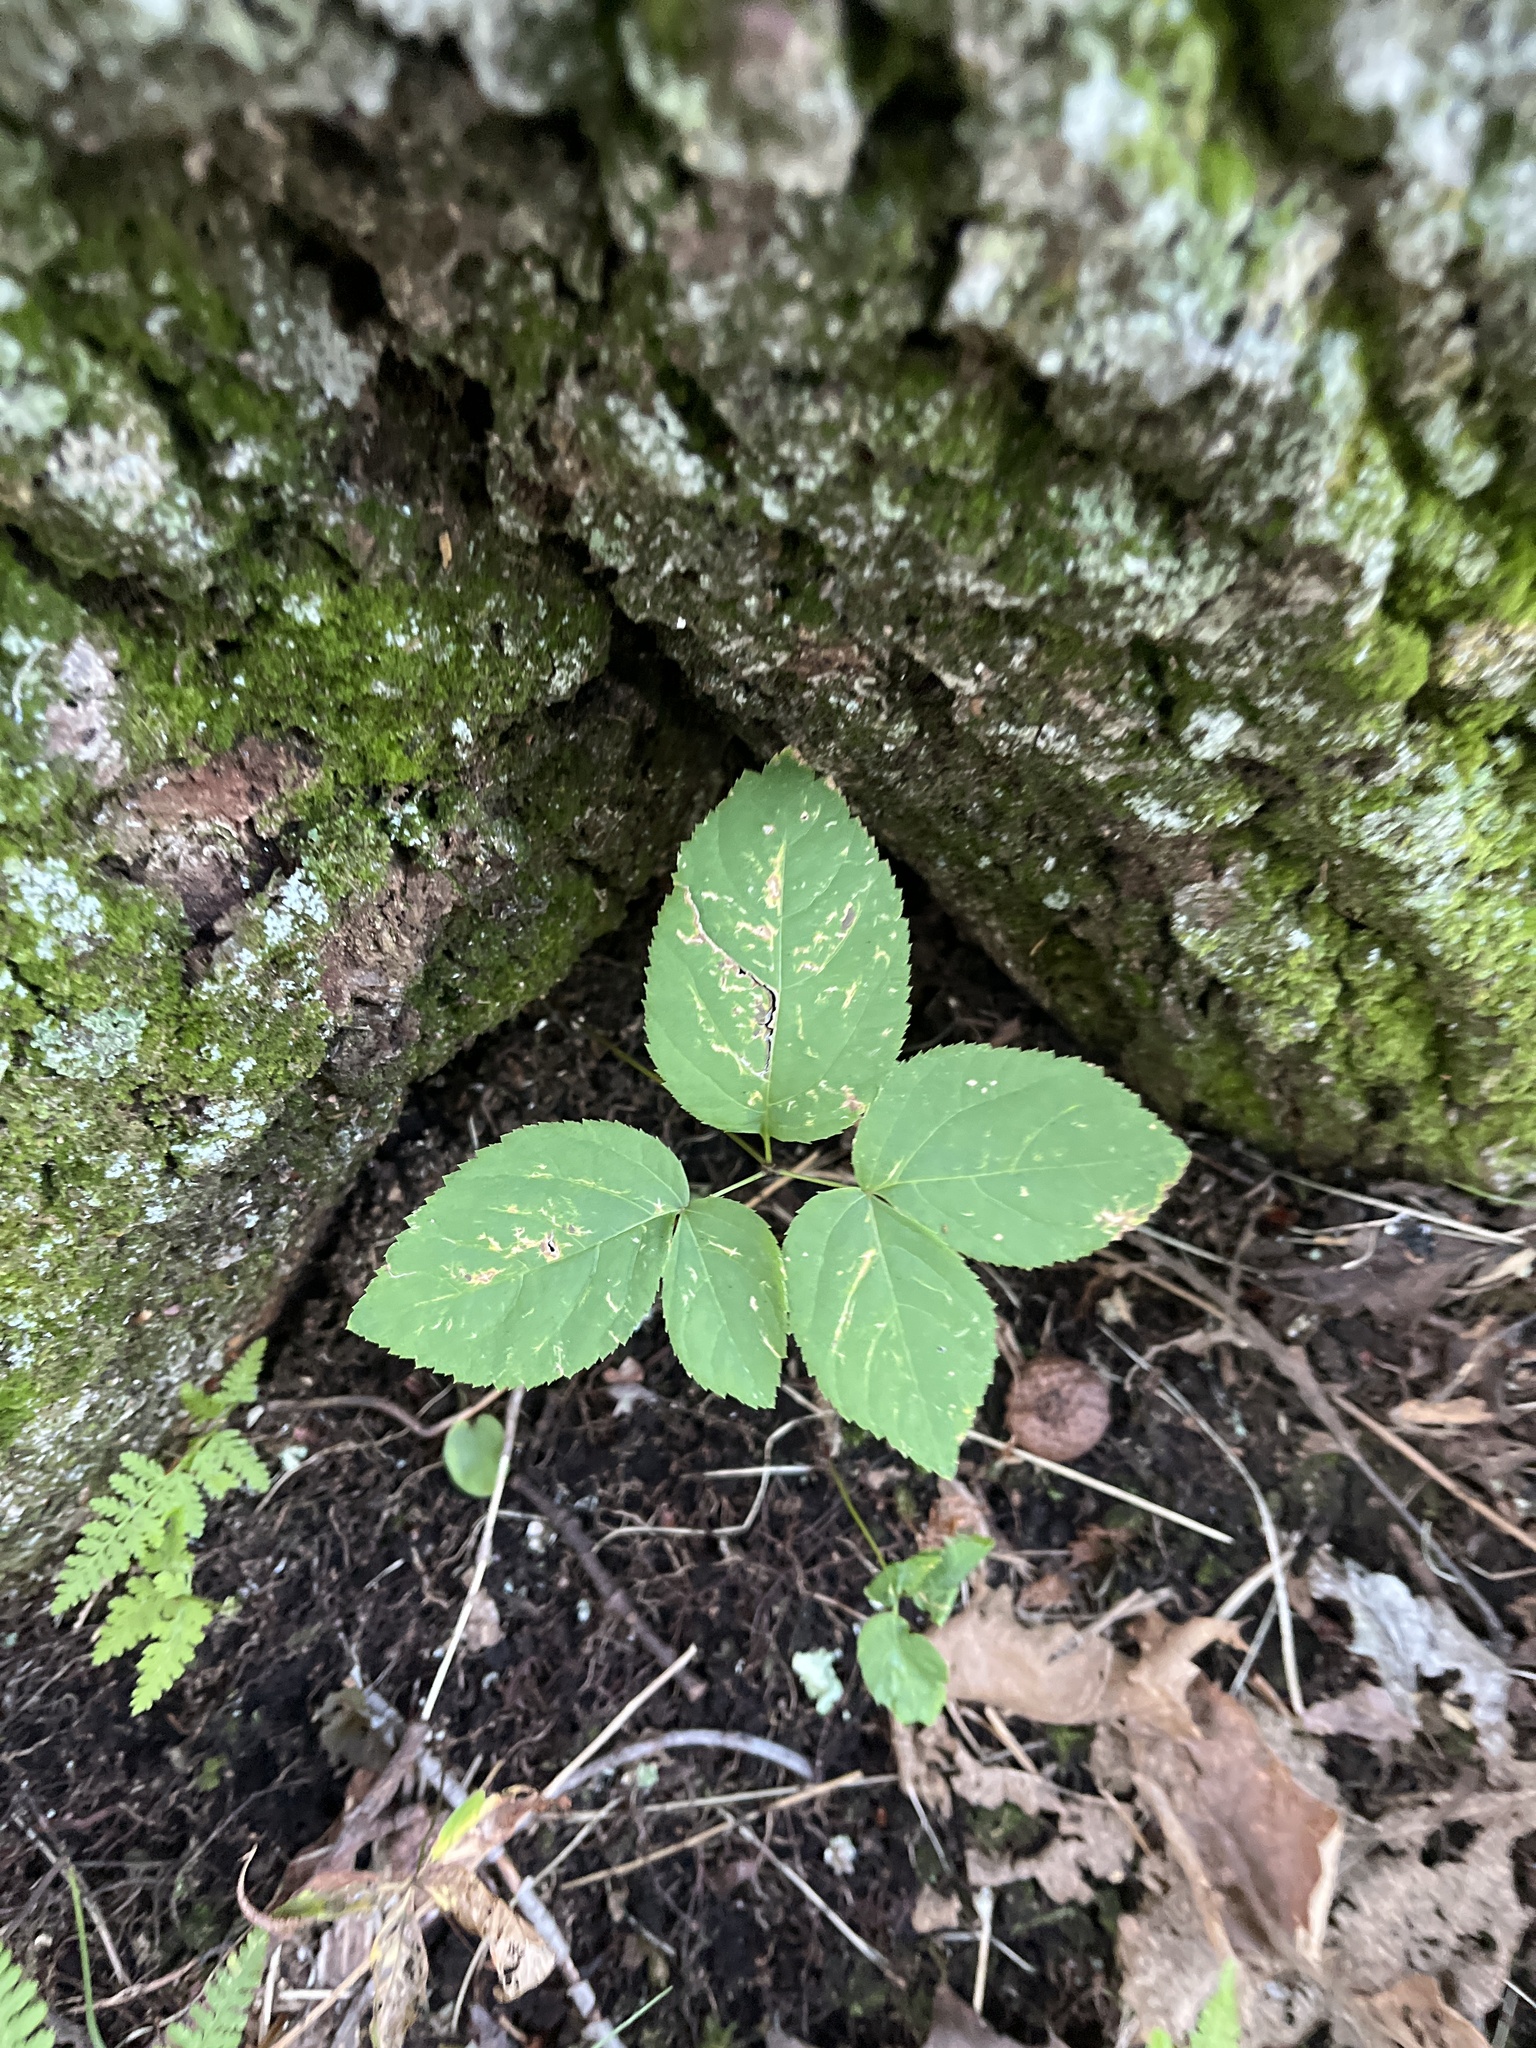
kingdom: Plantae
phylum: Tracheophyta
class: Magnoliopsida
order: Apiales
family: Araliaceae
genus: Aralia
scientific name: Aralia nudicaulis
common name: Wild sarsaparilla
